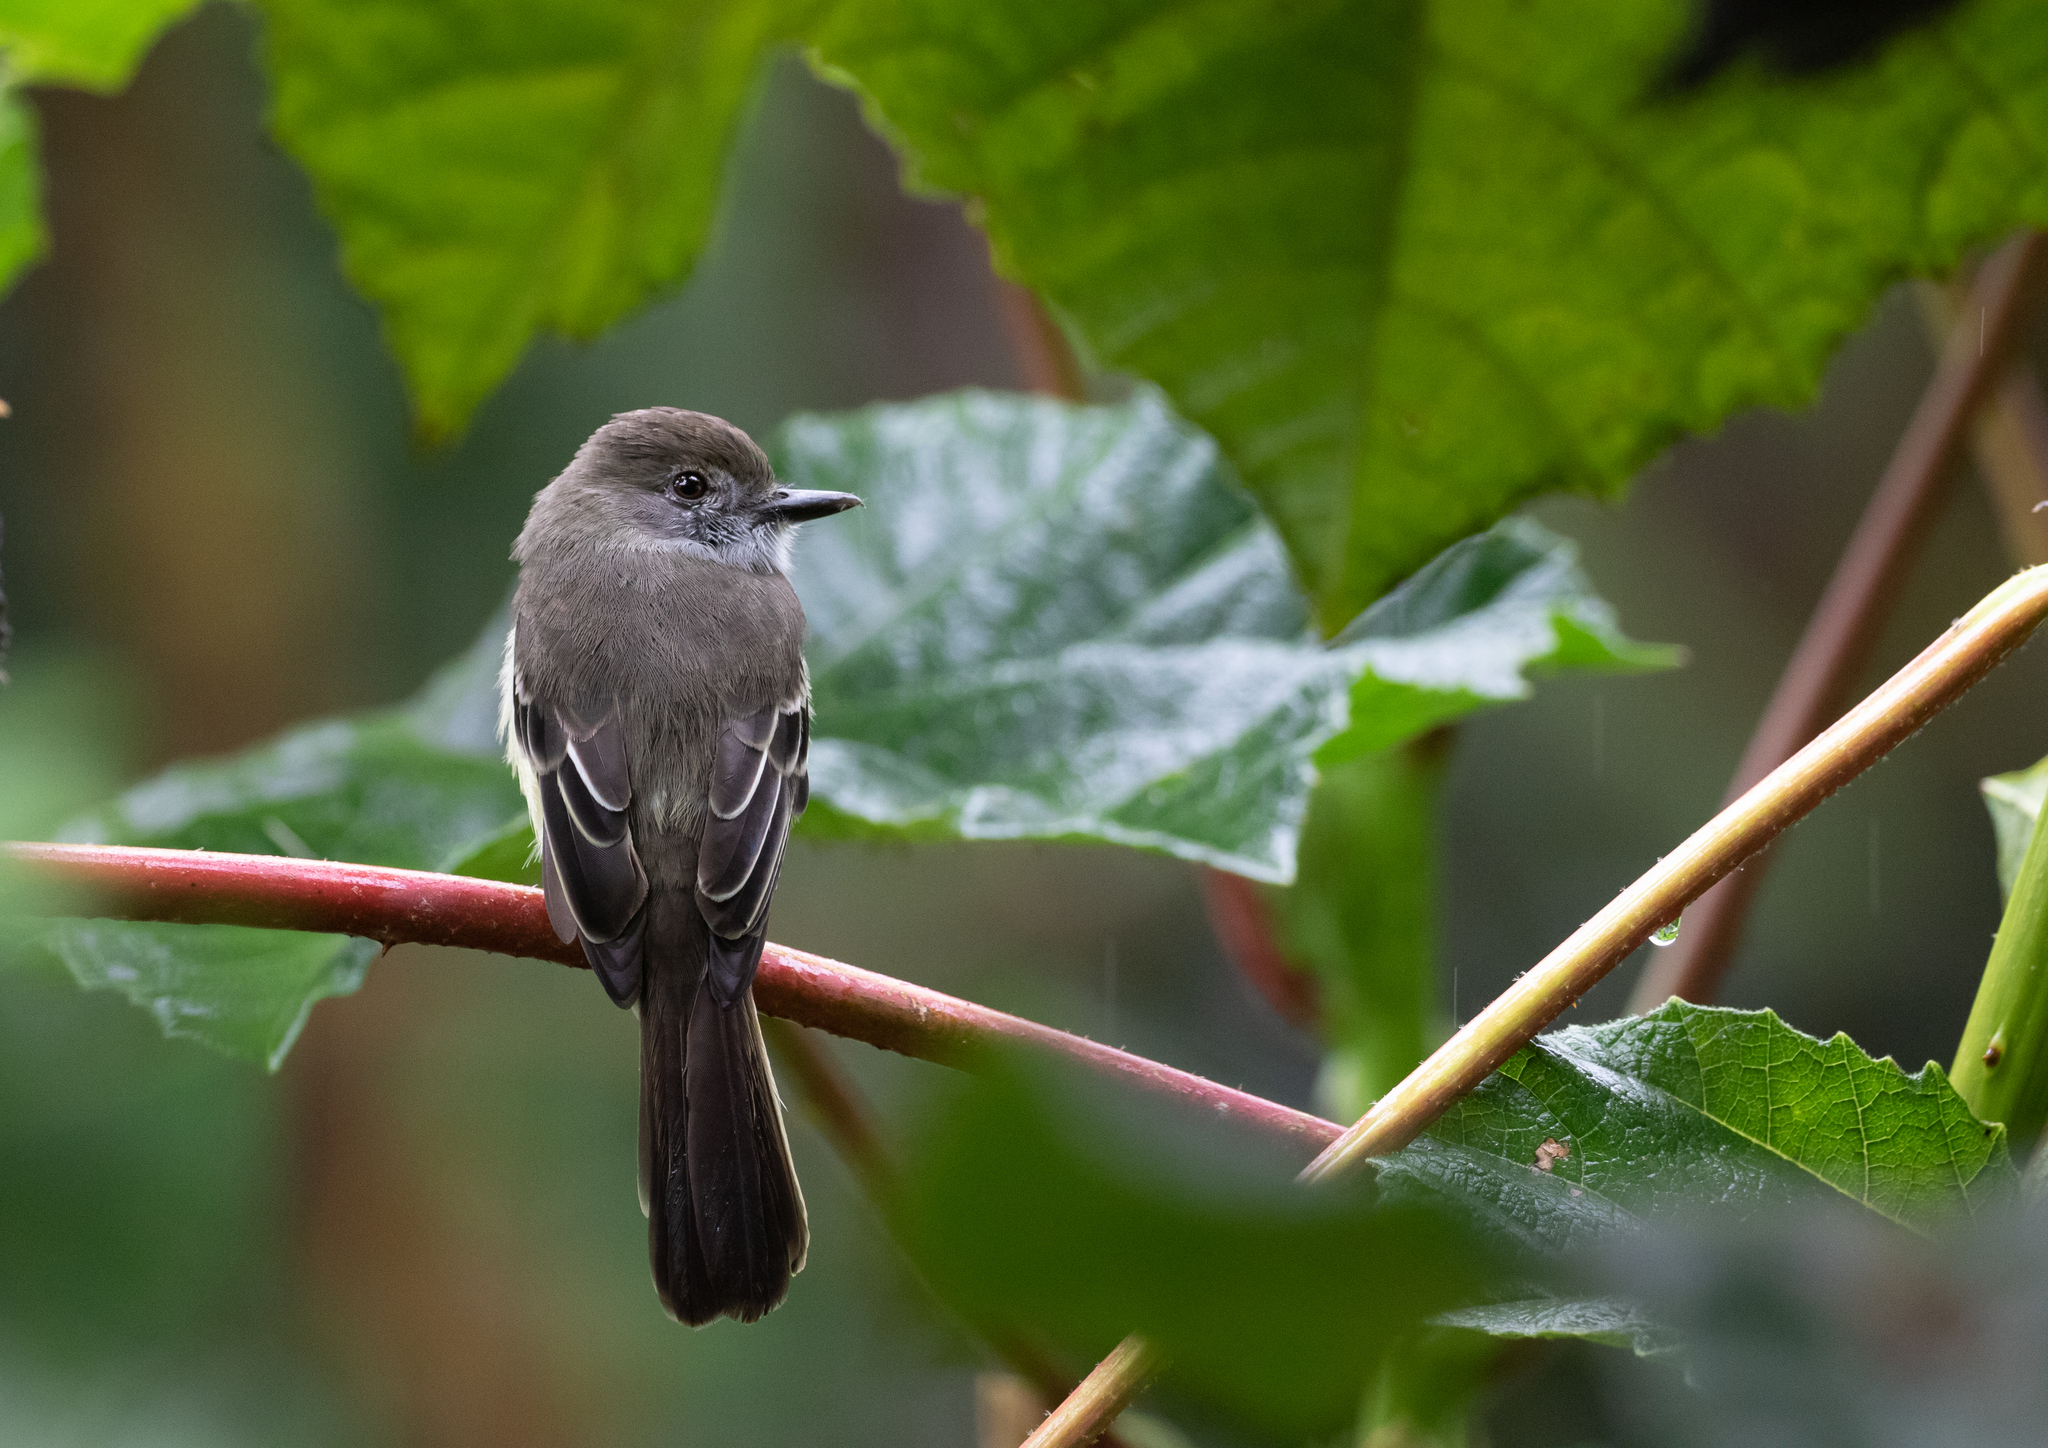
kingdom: Animalia
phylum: Chordata
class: Aves
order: Passeriformes
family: Tyrannidae
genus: Myiarchus
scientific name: Myiarchus cephalotes
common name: Pale-edged flycatcher
